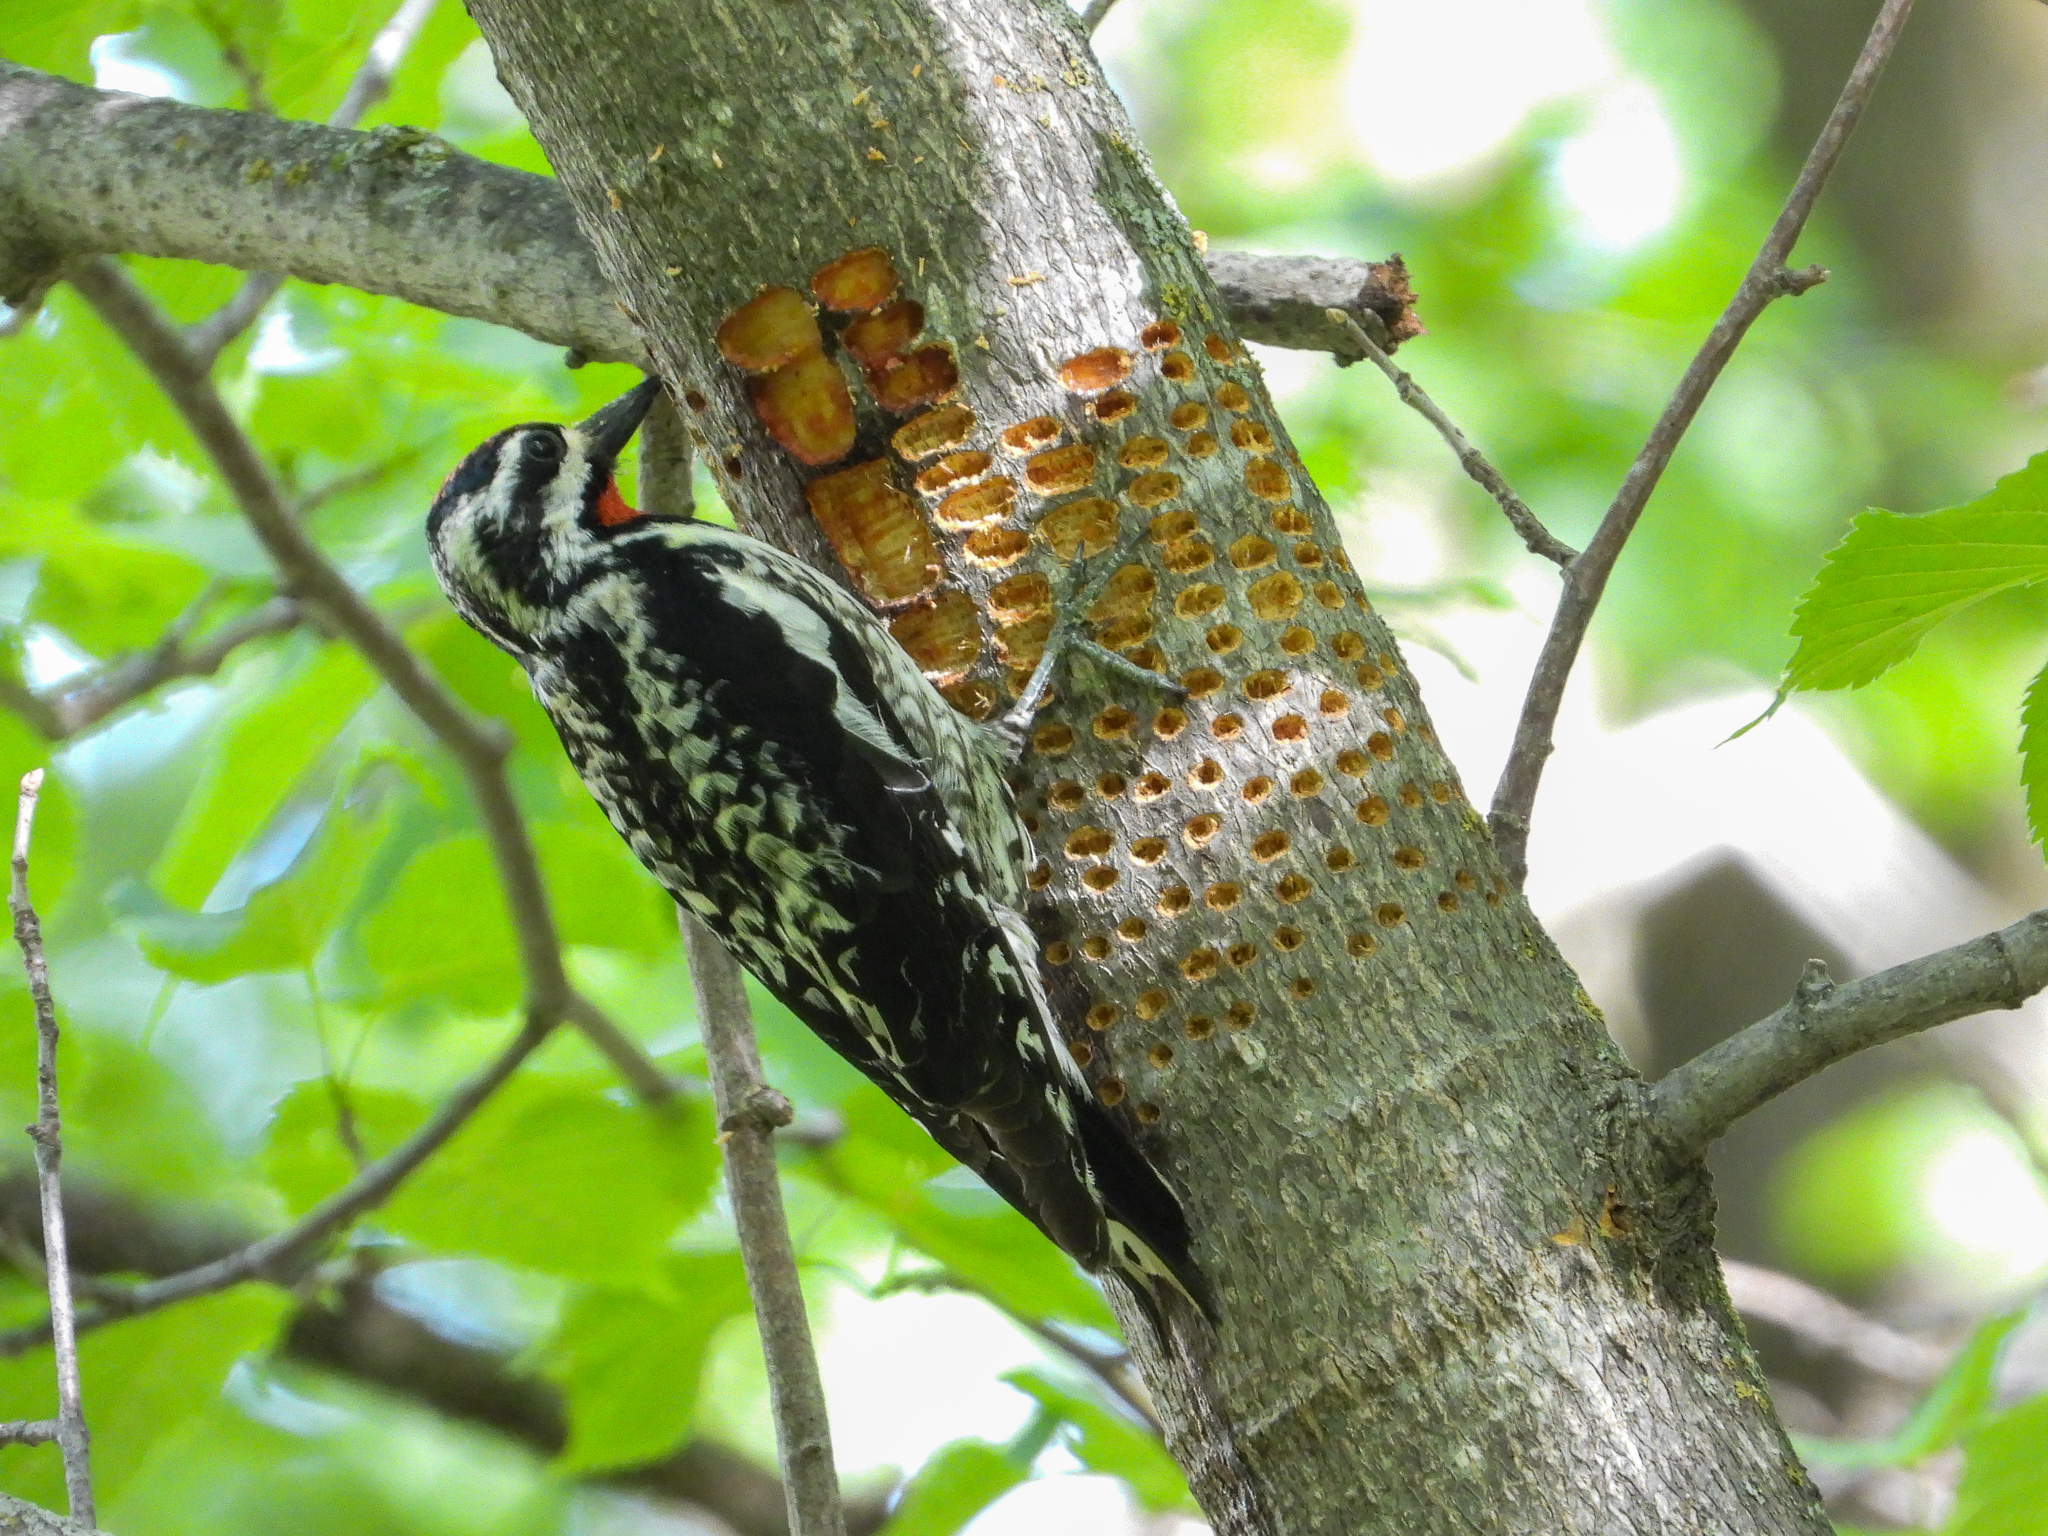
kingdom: Animalia
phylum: Chordata
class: Aves
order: Piciformes
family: Picidae
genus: Sphyrapicus
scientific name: Sphyrapicus varius
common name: Yellow-bellied sapsucker
